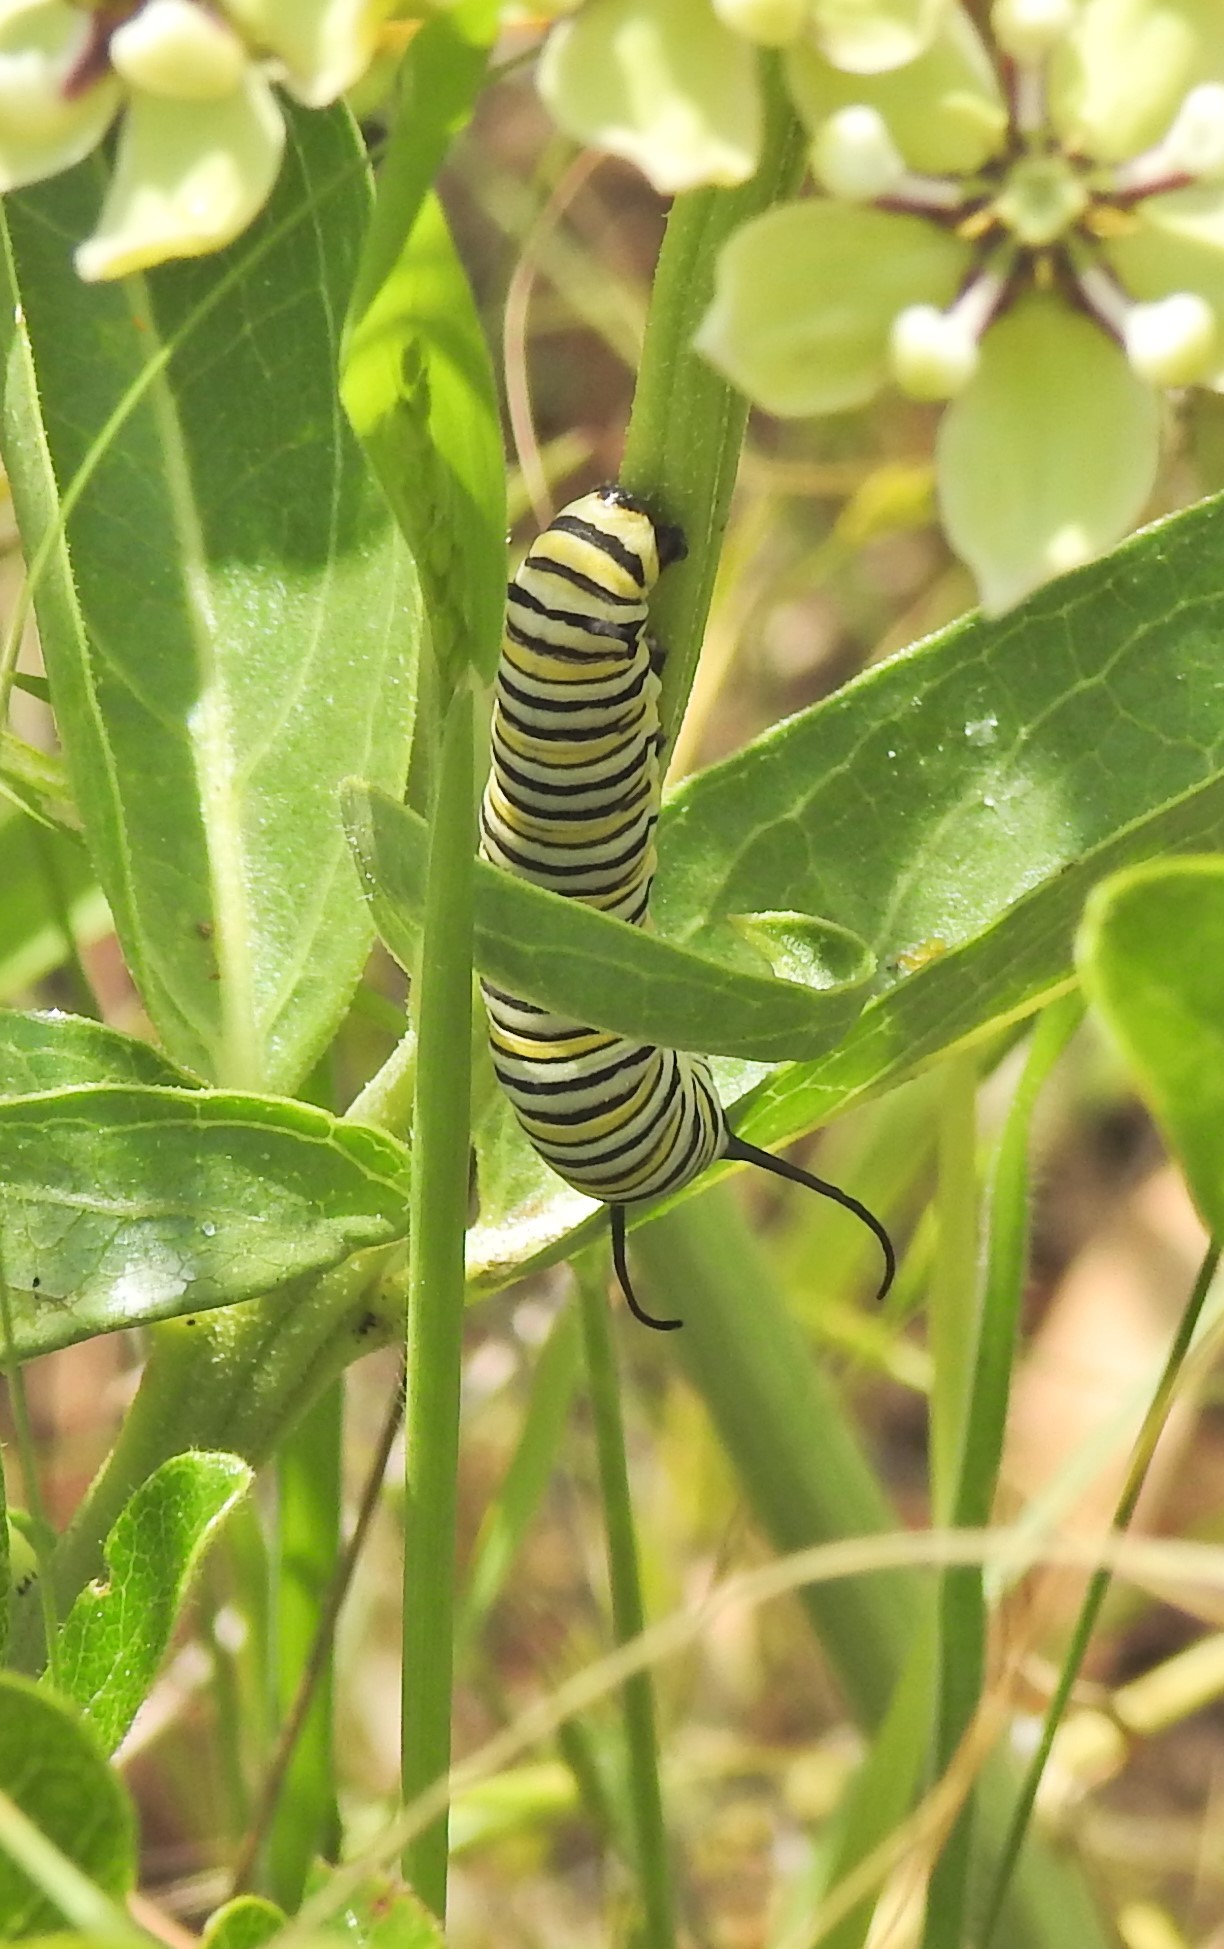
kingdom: Animalia
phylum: Arthropoda
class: Insecta
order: Lepidoptera
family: Nymphalidae
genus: Danaus
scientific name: Danaus plexippus
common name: Monarch
